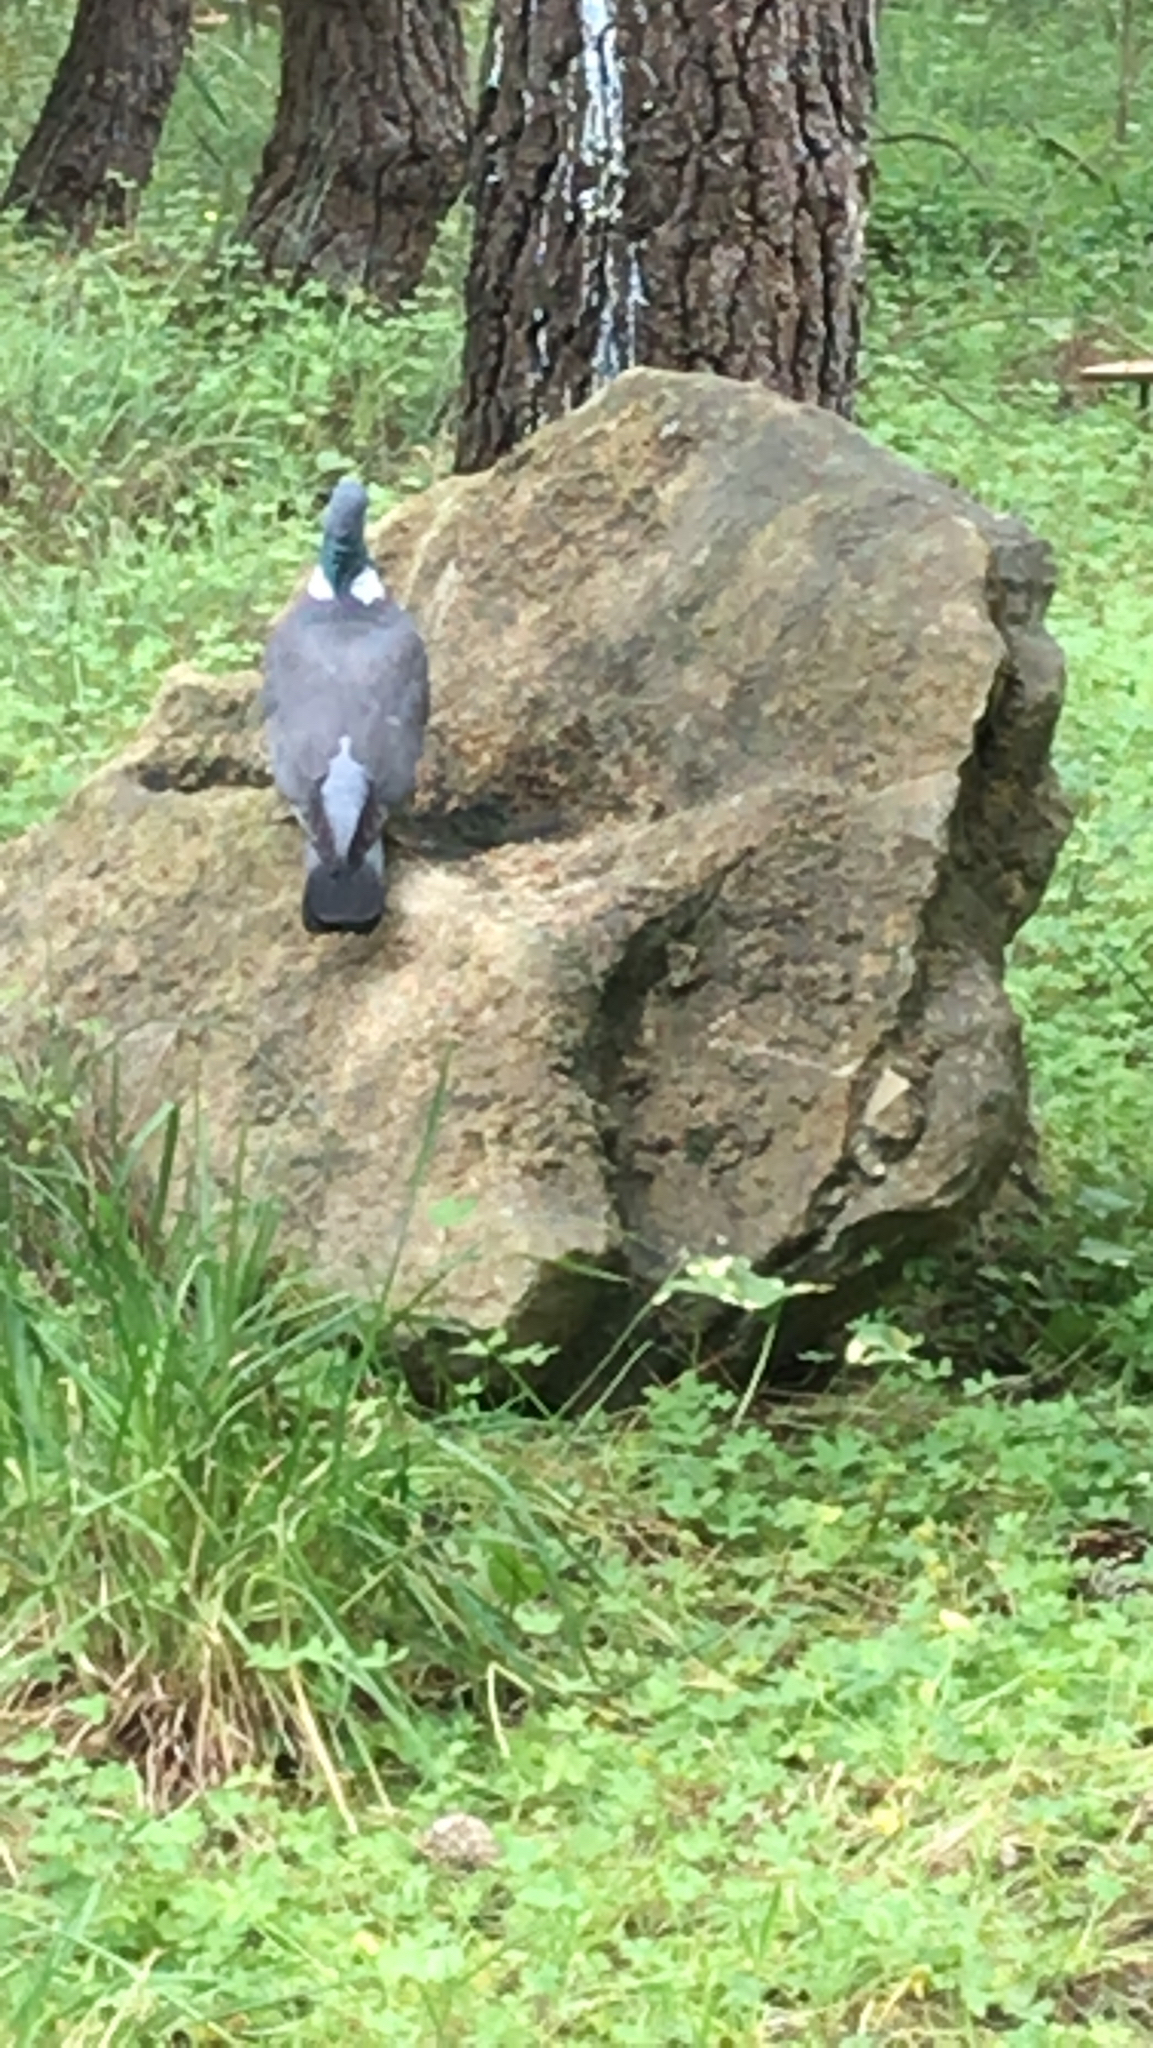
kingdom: Animalia
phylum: Chordata
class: Aves
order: Columbiformes
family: Columbidae
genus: Columba
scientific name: Columba palumbus
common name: Common wood pigeon
